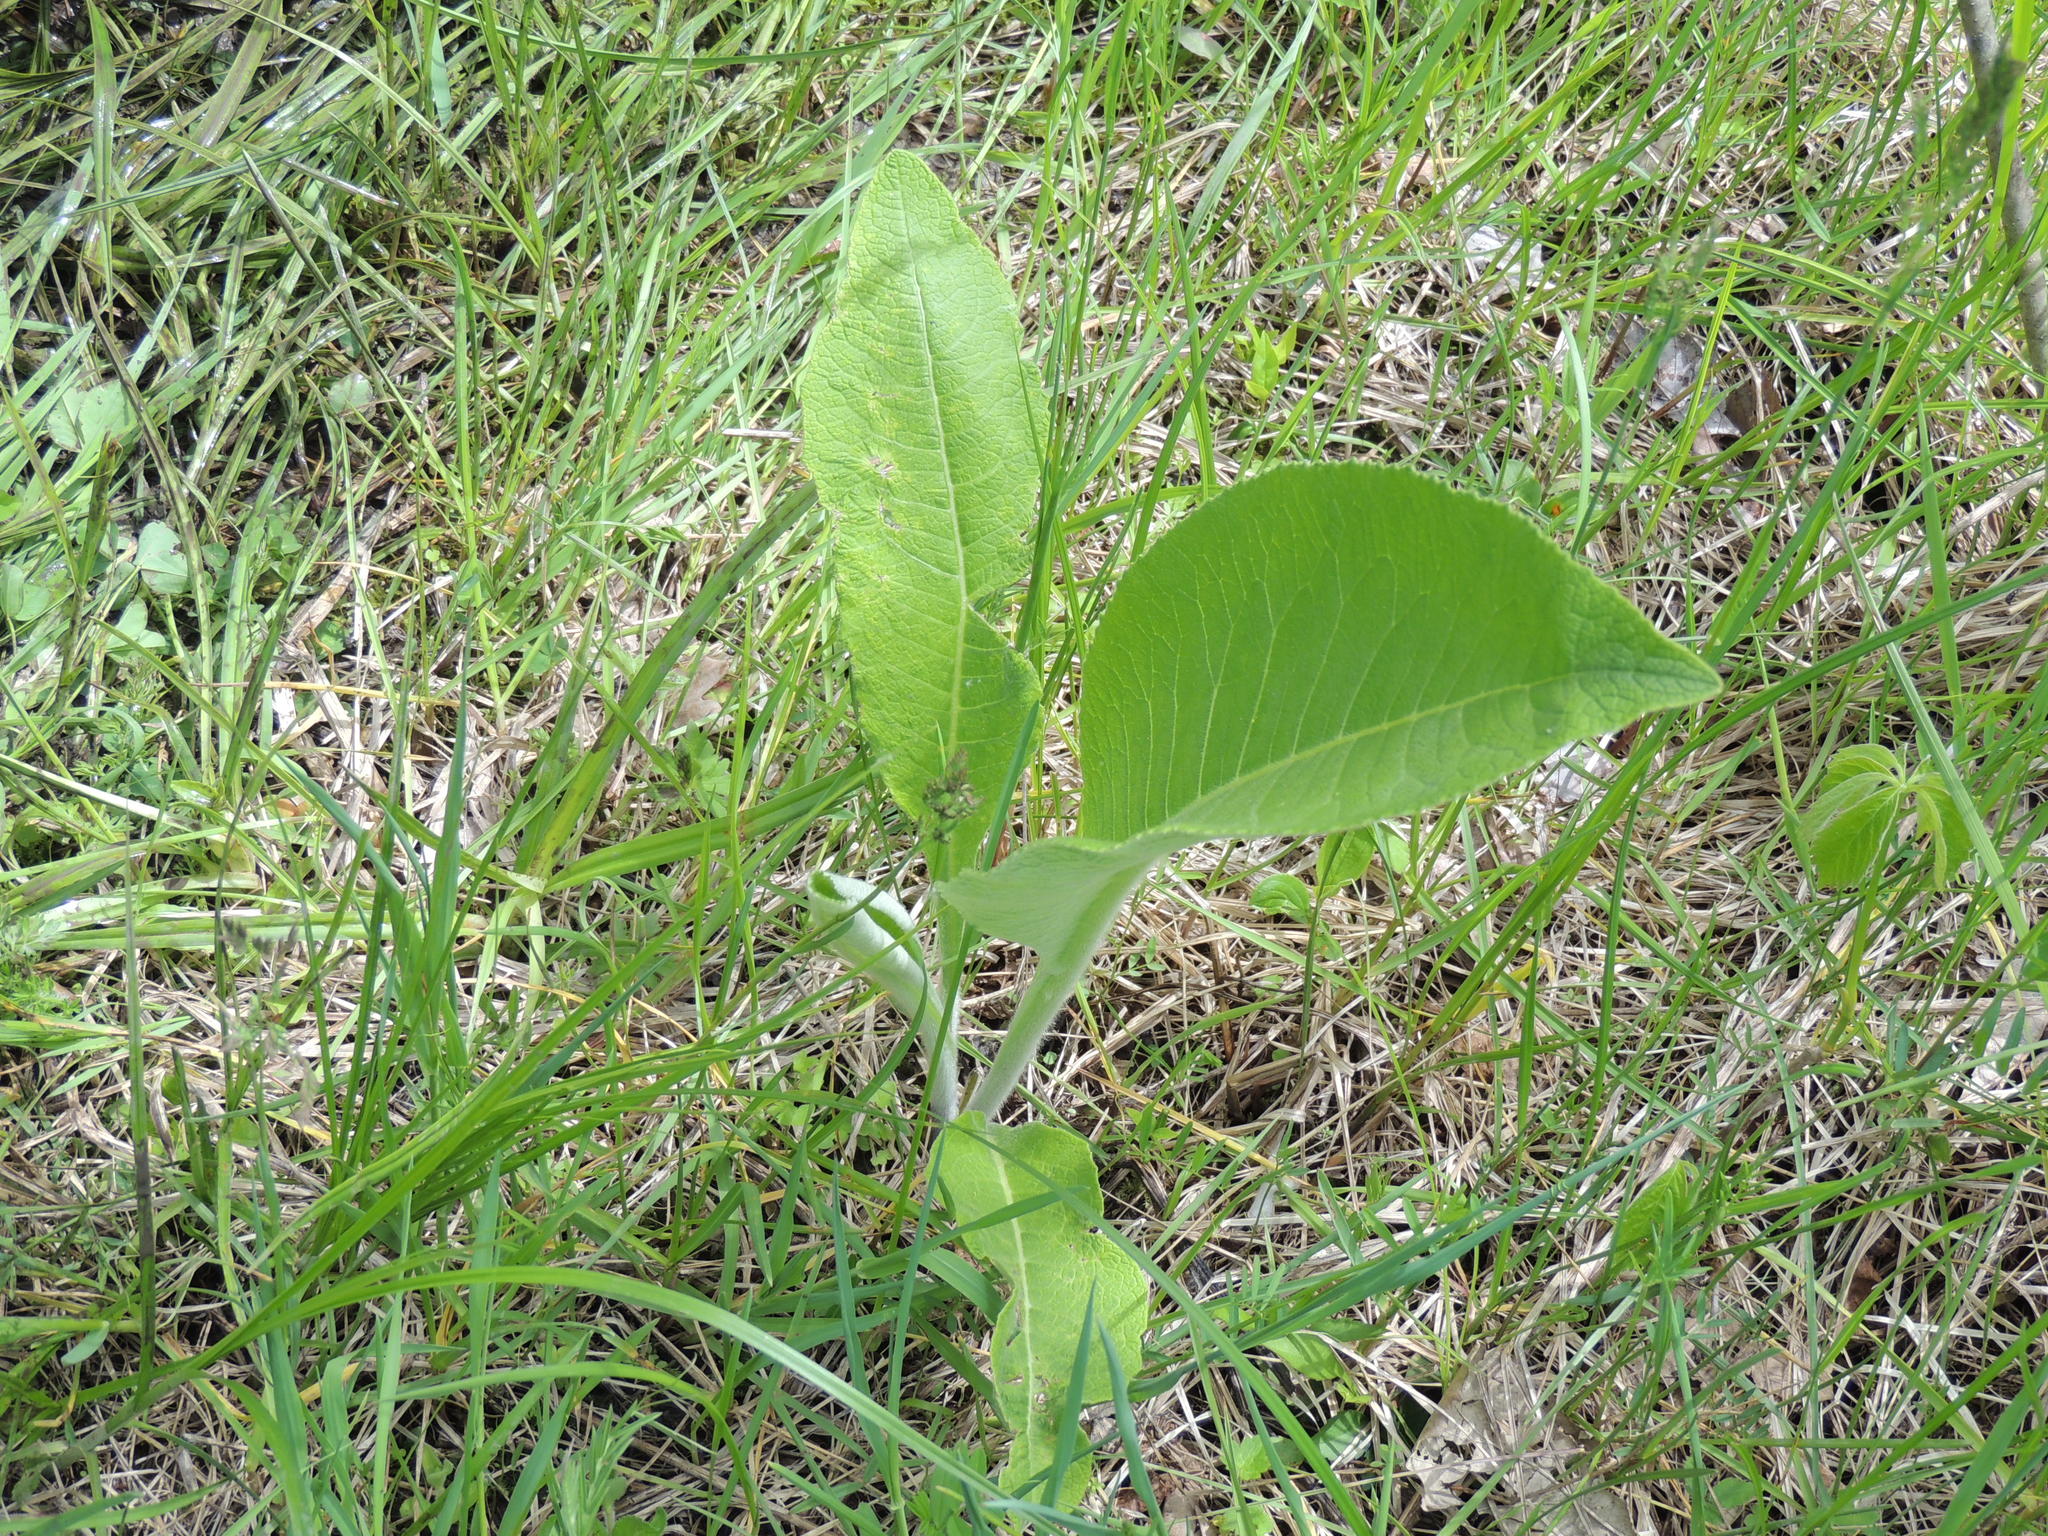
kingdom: Plantae
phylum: Tracheophyta
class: Magnoliopsida
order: Asterales
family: Asteraceae
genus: Inula
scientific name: Inula helenium
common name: Elecampane
